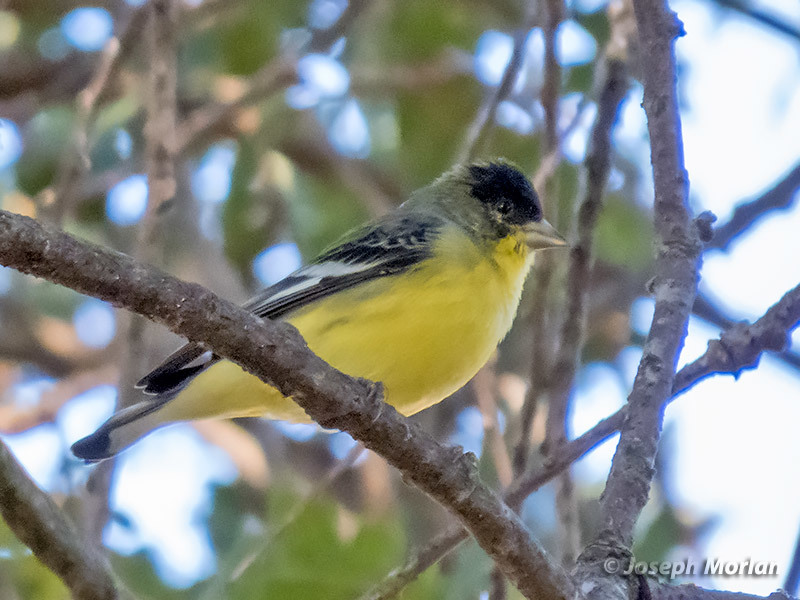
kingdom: Animalia
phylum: Chordata
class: Aves
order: Passeriformes
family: Fringillidae
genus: Spinus
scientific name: Spinus psaltria
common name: Lesser goldfinch
